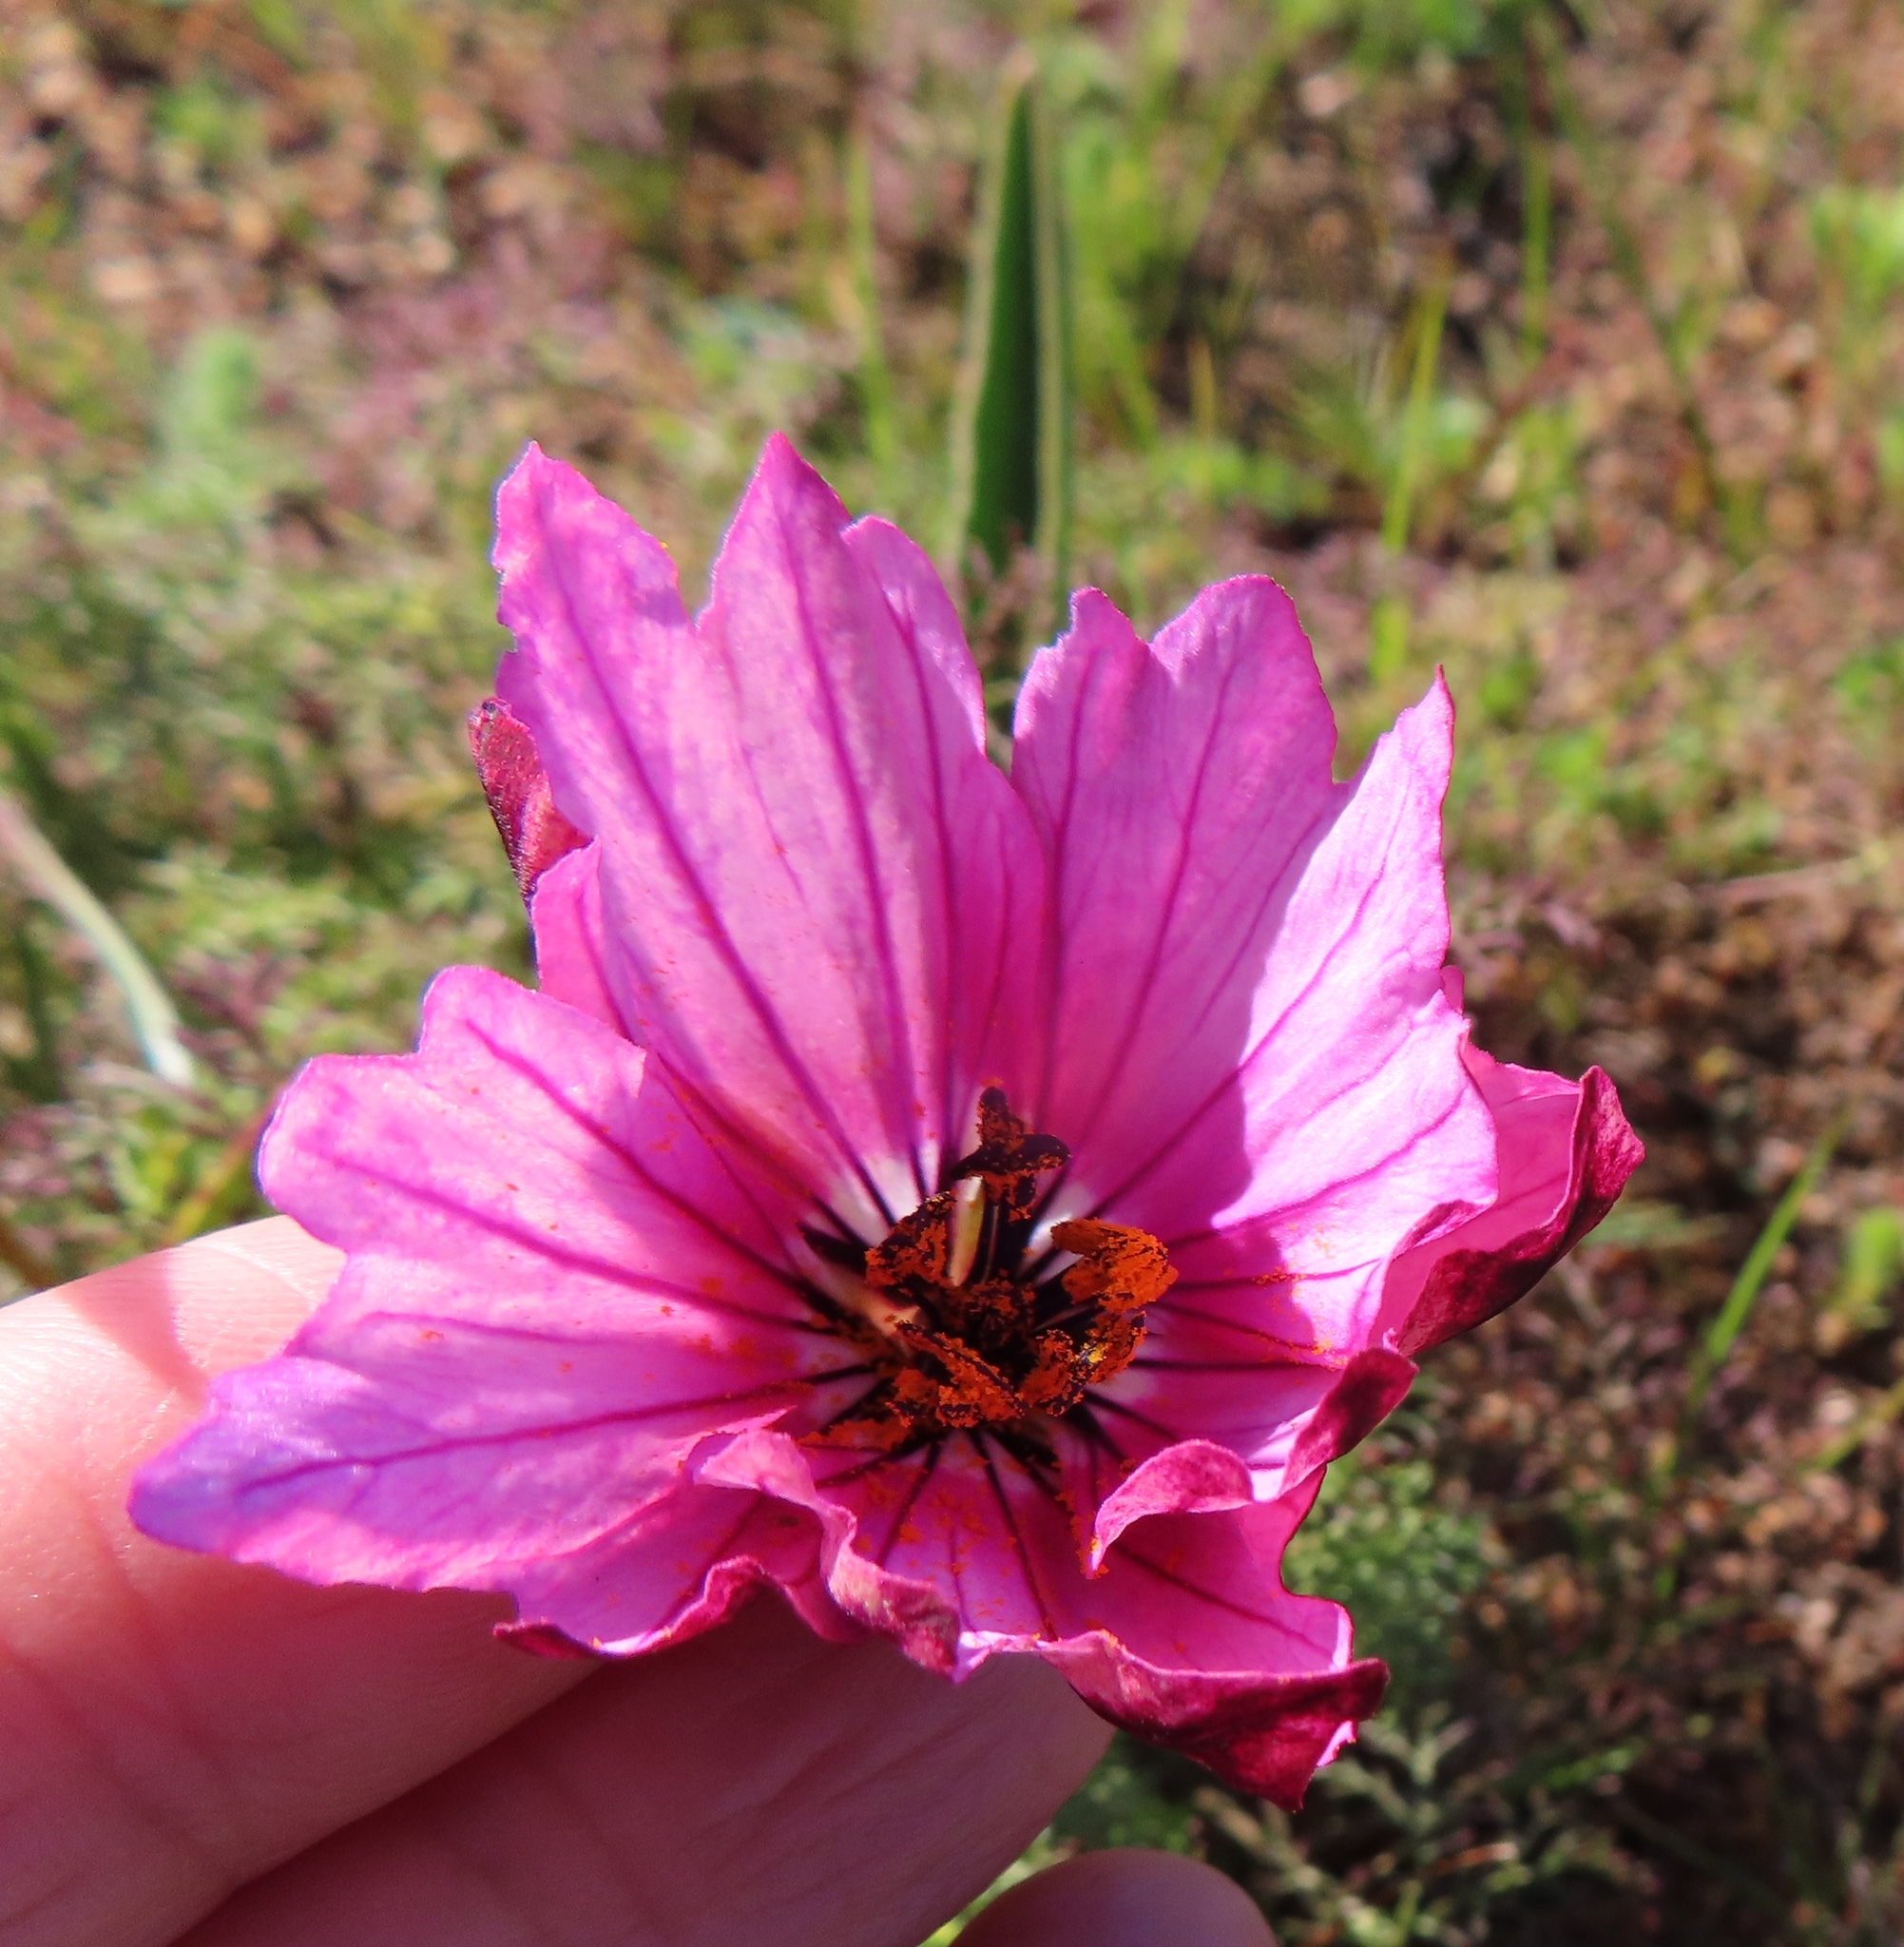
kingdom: Plantae
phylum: Tracheophyta
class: Magnoliopsida
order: Geraniales
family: Geraniaceae
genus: Monsonia
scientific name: Monsonia speciosa
